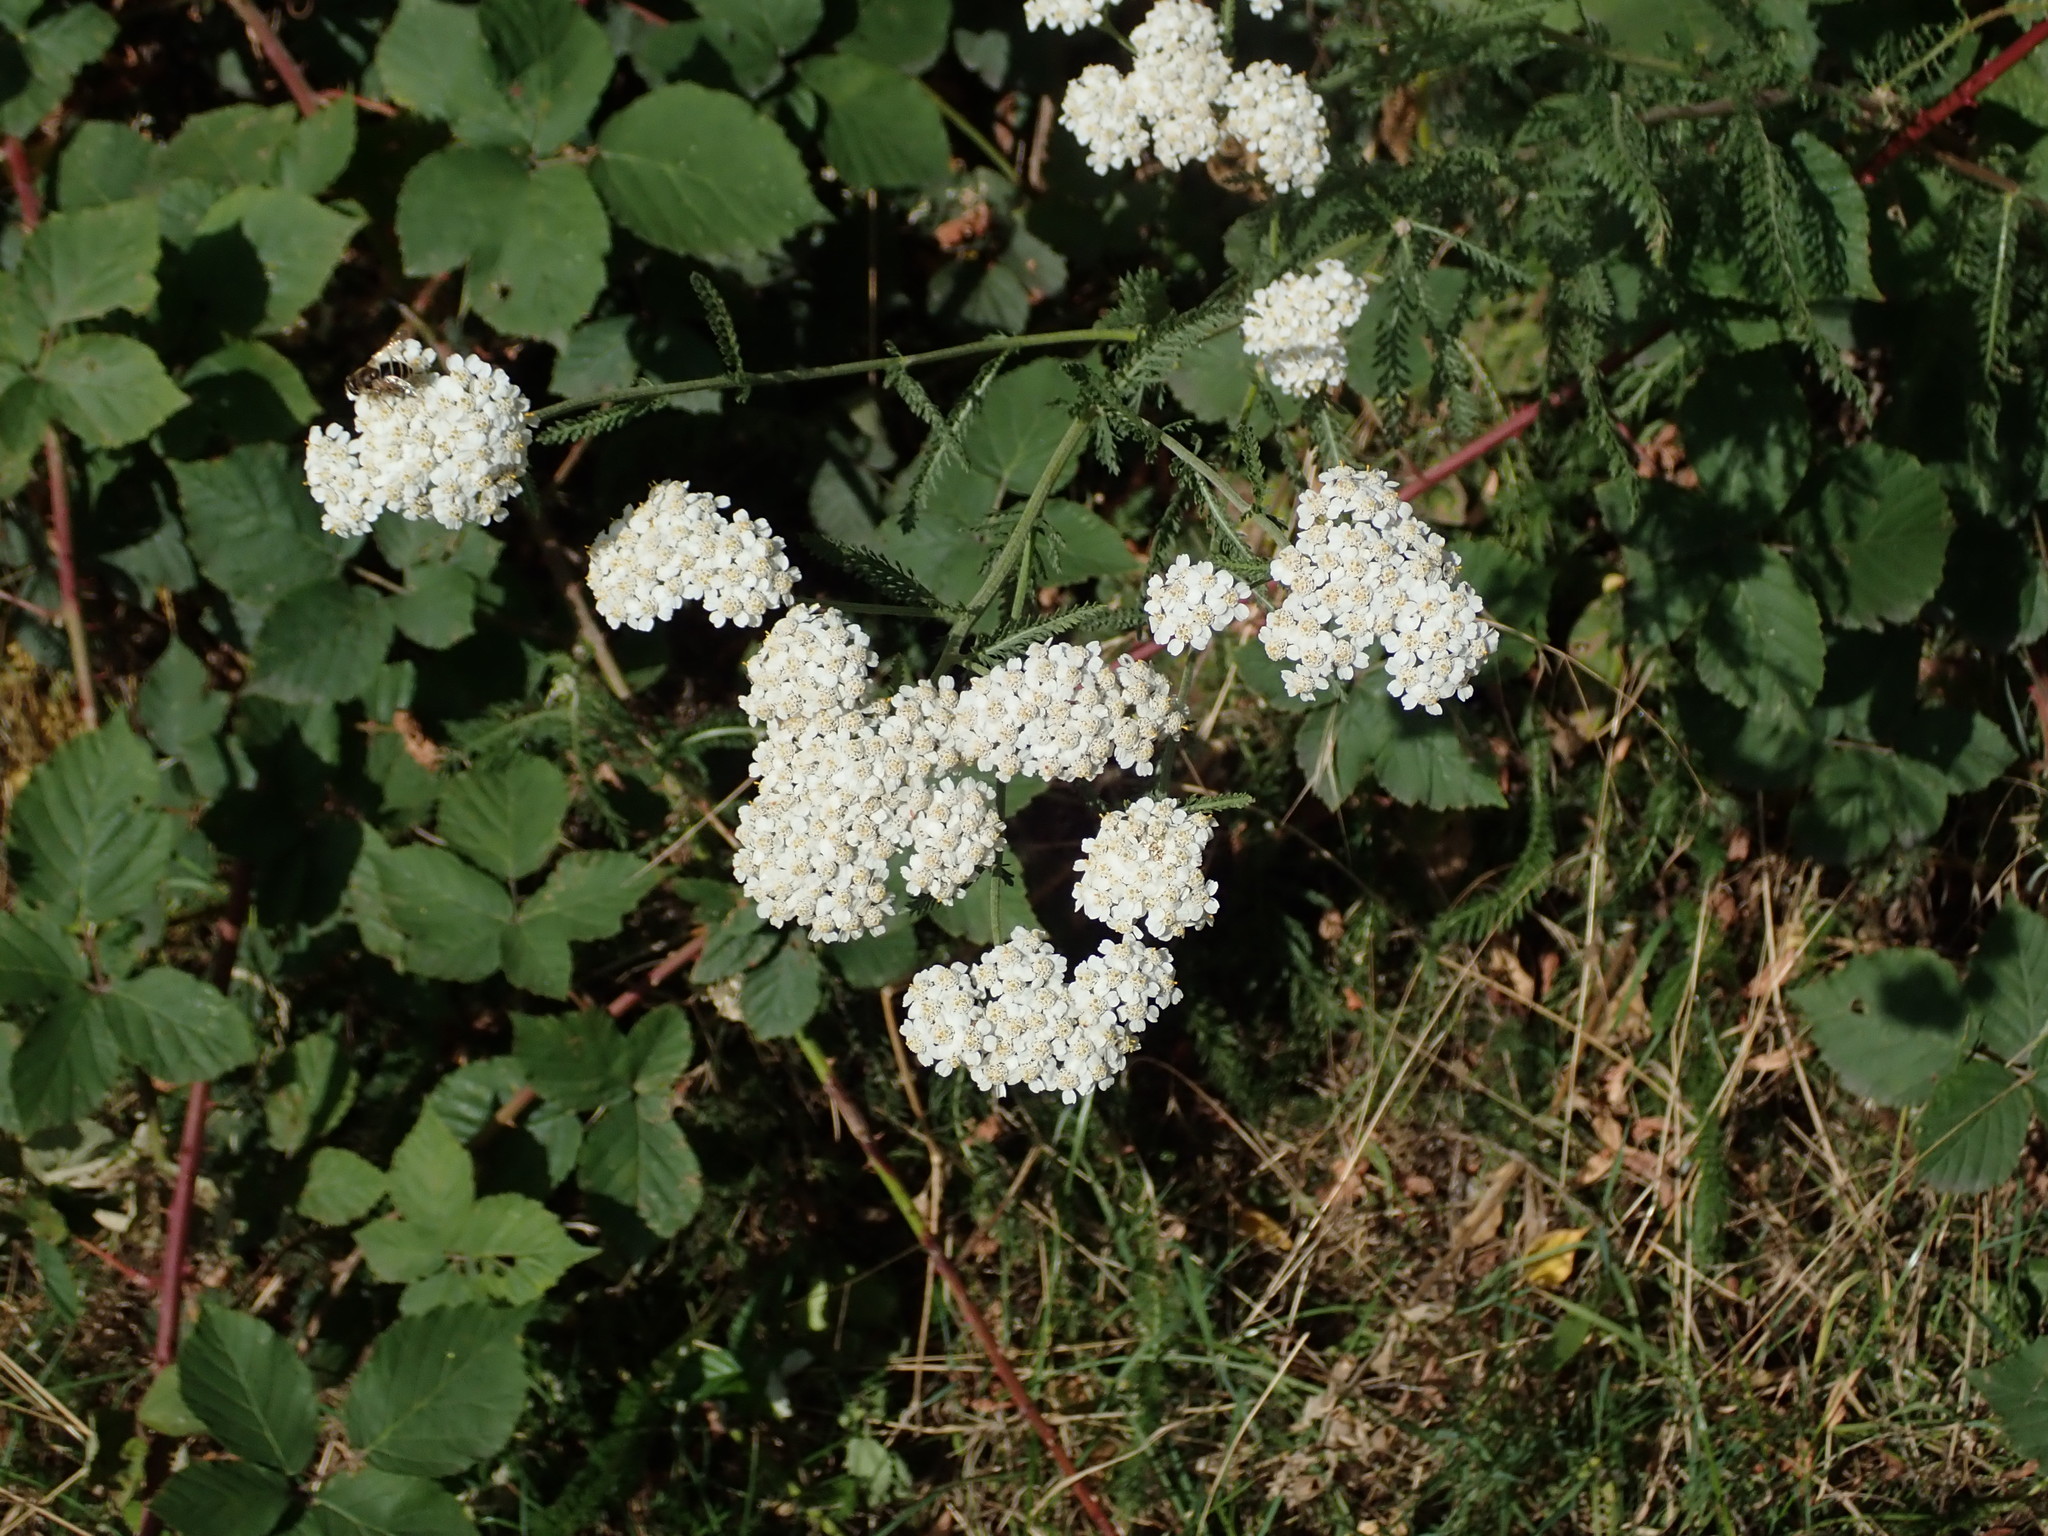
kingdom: Plantae
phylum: Tracheophyta
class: Magnoliopsida
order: Asterales
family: Asteraceae
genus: Achillea
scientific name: Achillea millefolium
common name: Yarrow
